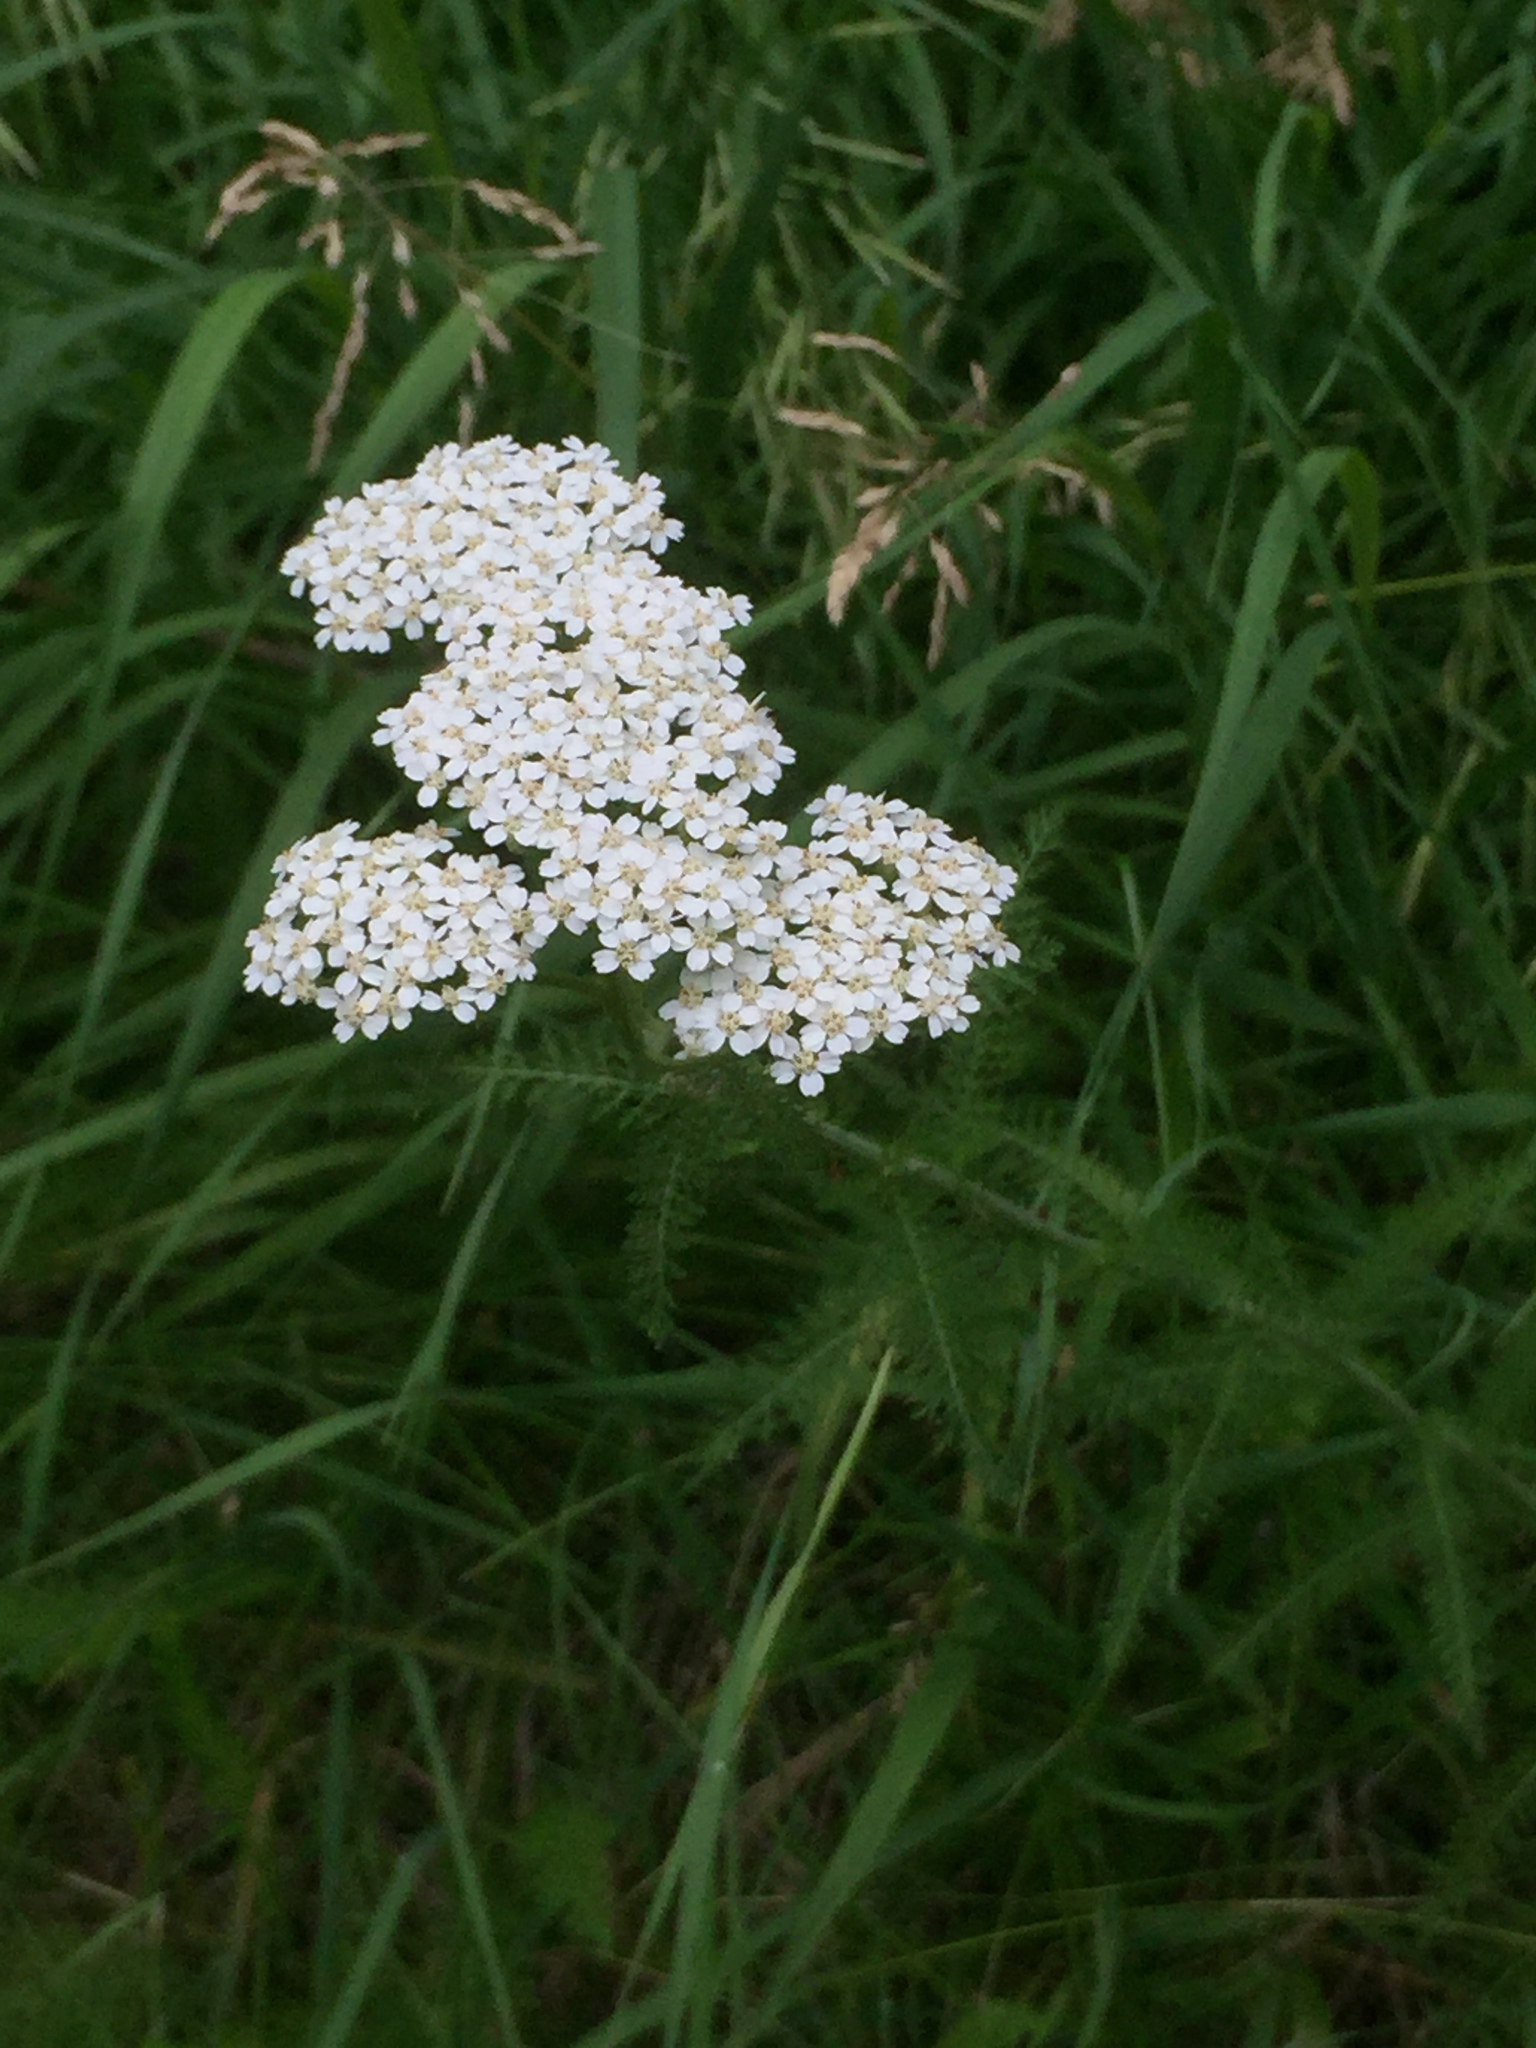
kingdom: Plantae
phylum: Tracheophyta
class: Magnoliopsida
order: Asterales
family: Asteraceae
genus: Achillea
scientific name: Achillea millefolium
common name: Yarrow
